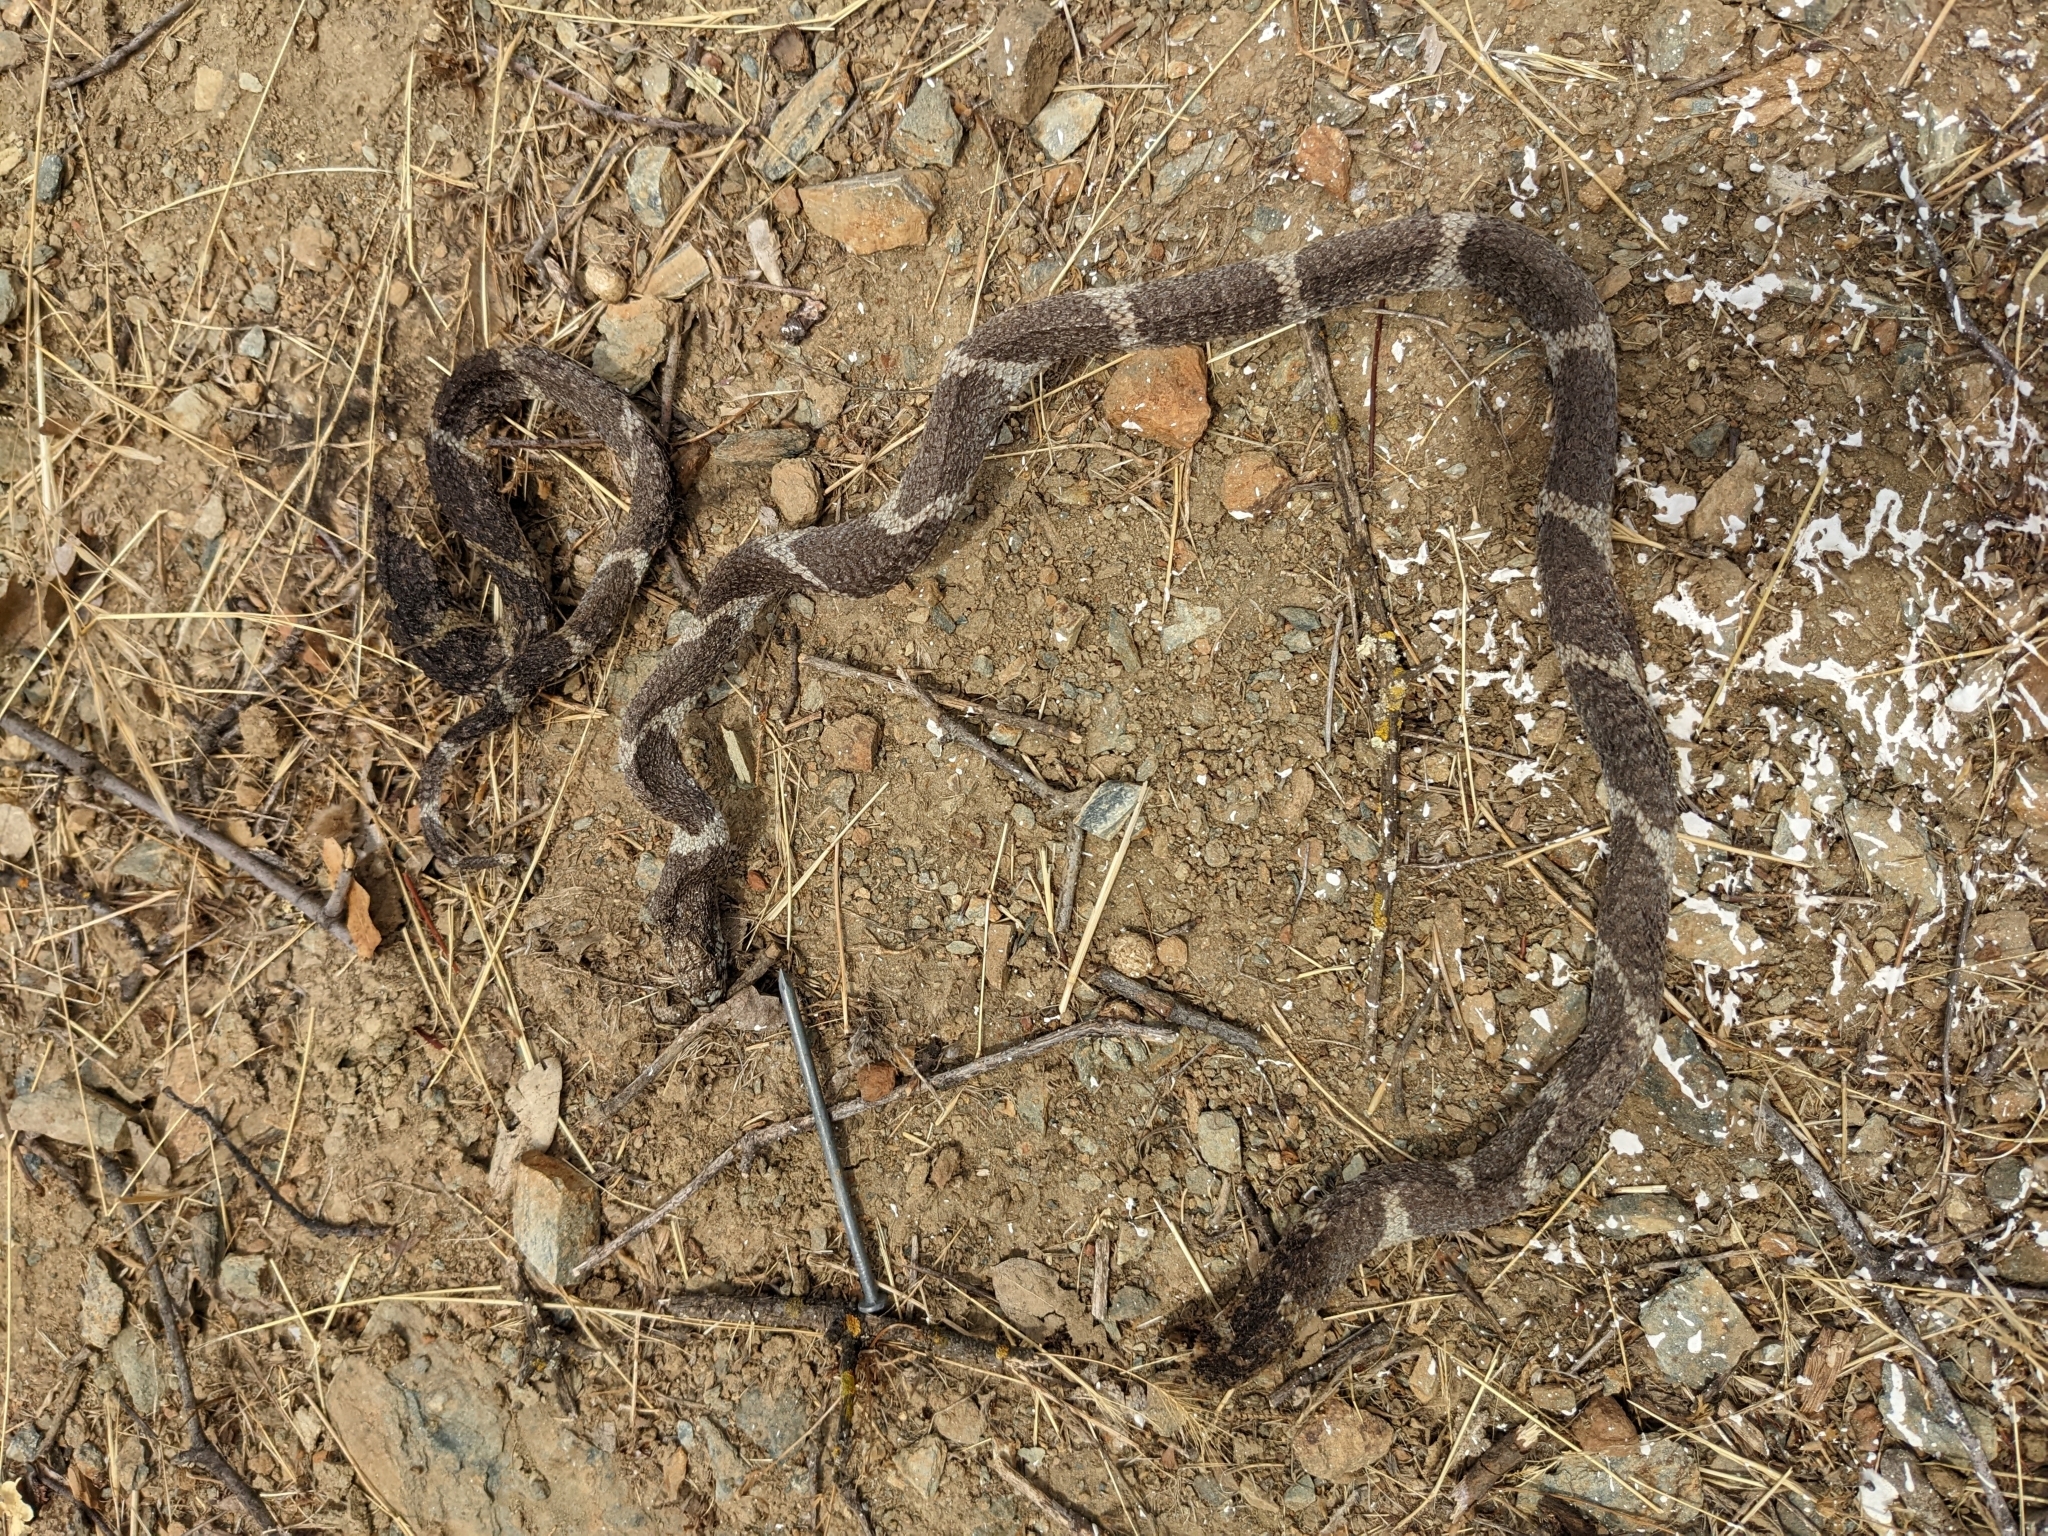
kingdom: Animalia
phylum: Chordata
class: Squamata
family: Colubridae
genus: Lampropeltis
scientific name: Lampropeltis californiae
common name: California kingsnake
